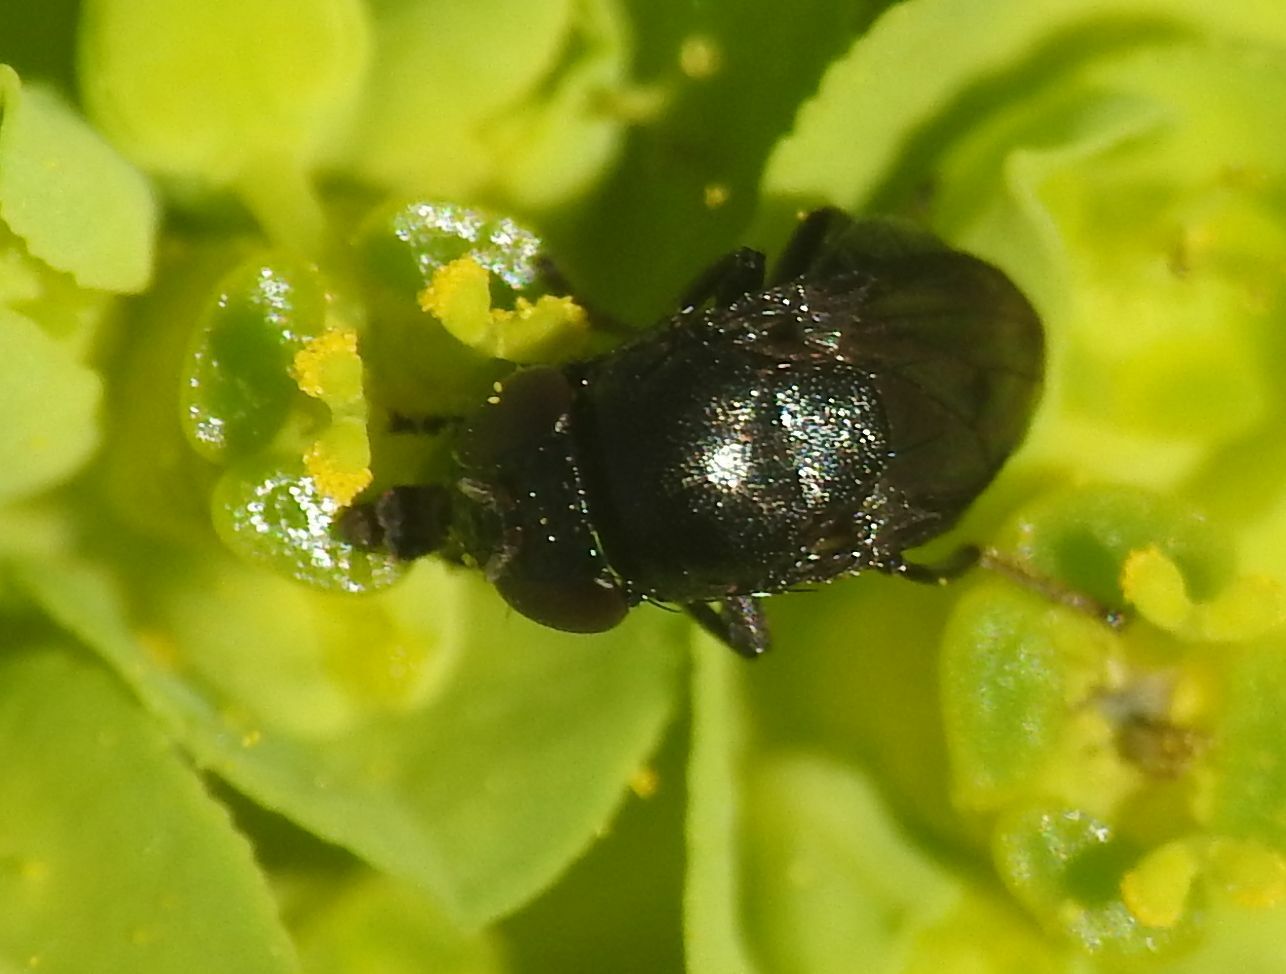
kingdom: Animalia
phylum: Arthropoda
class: Insecta
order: Diptera
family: Ephydridae
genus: Discomyza
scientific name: Discomyza incurva
